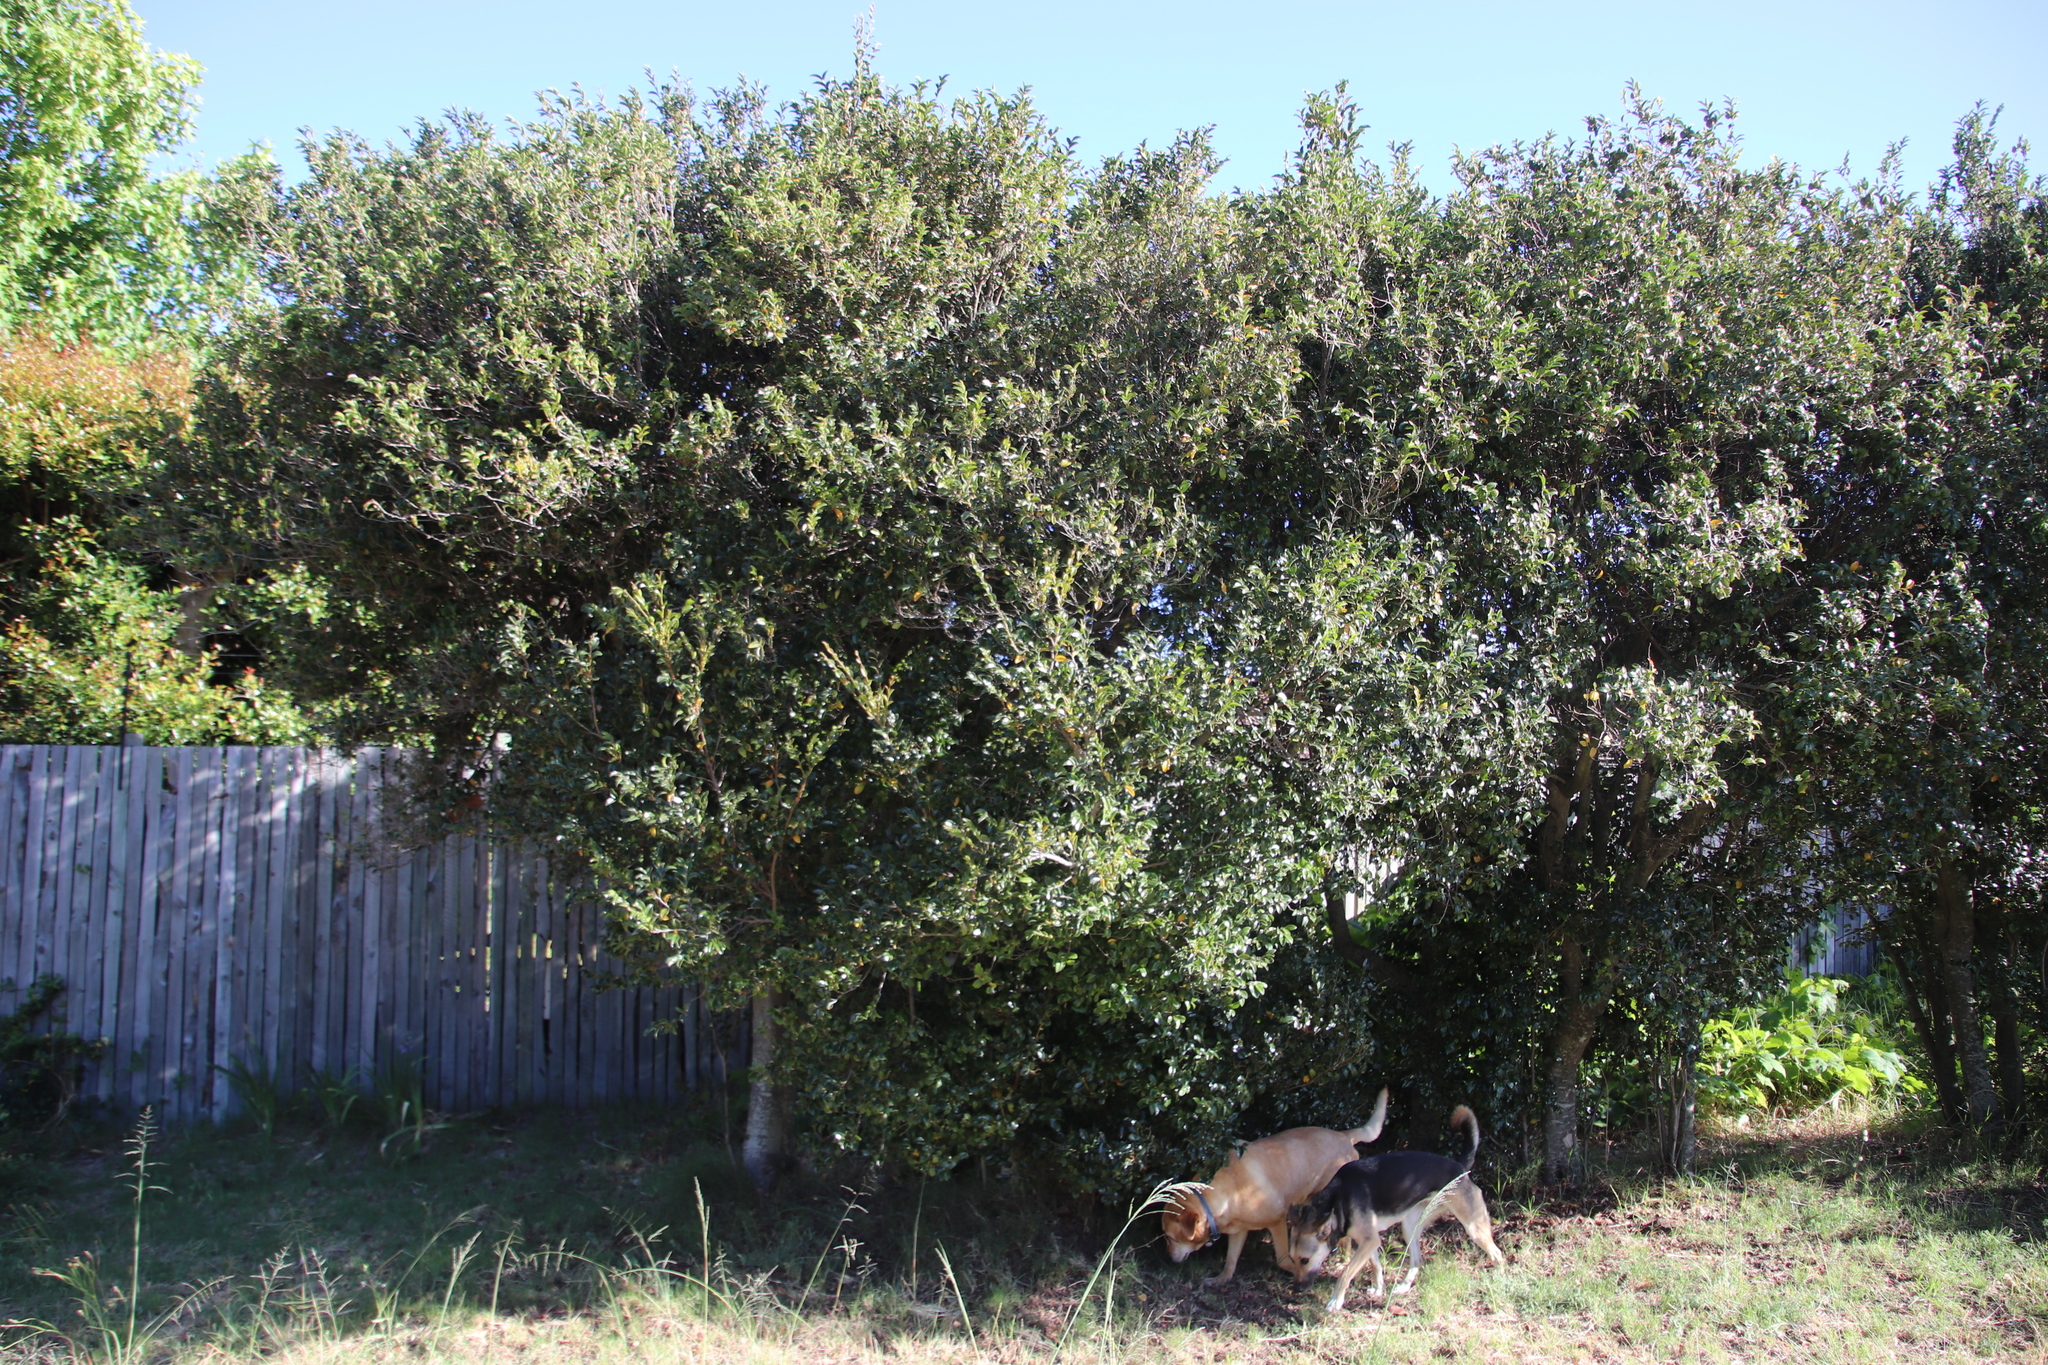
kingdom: Plantae
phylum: Tracheophyta
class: Magnoliopsida
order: Ericales
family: Ebenaceae
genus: Diospyros
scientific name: Diospyros whyteana
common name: Bladder-nut
